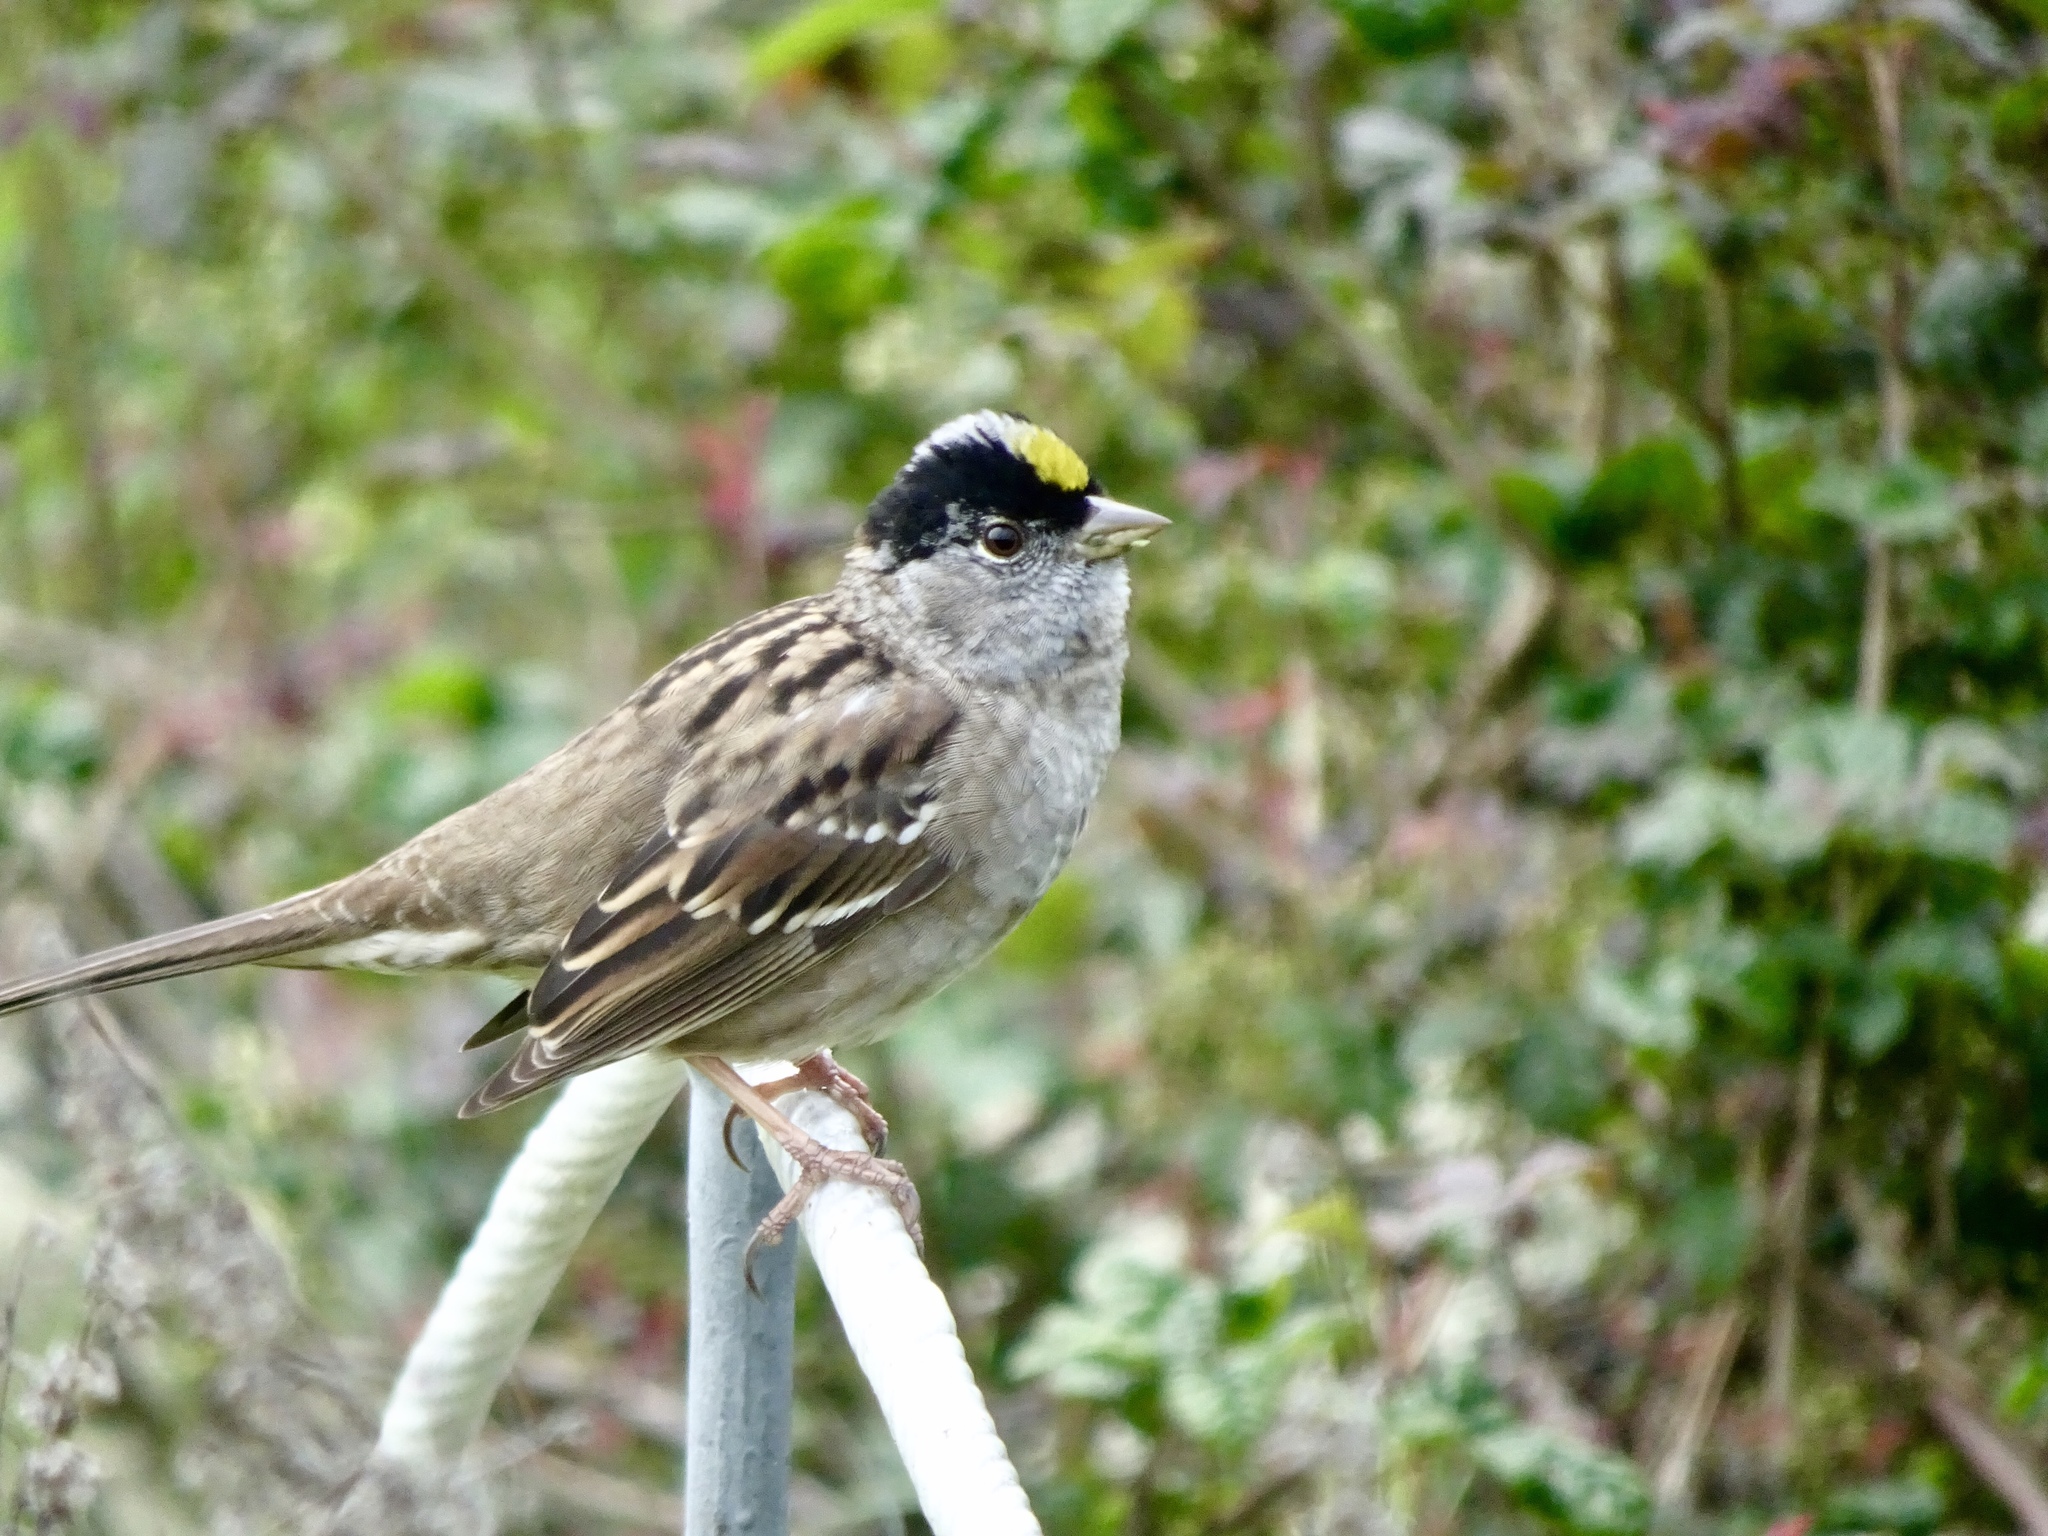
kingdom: Animalia
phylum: Chordata
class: Aves
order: Passeriformes
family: Passerellidae
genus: Zonotrichia
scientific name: Zonotrichia atricapilla
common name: Golden-crowned sparrow
